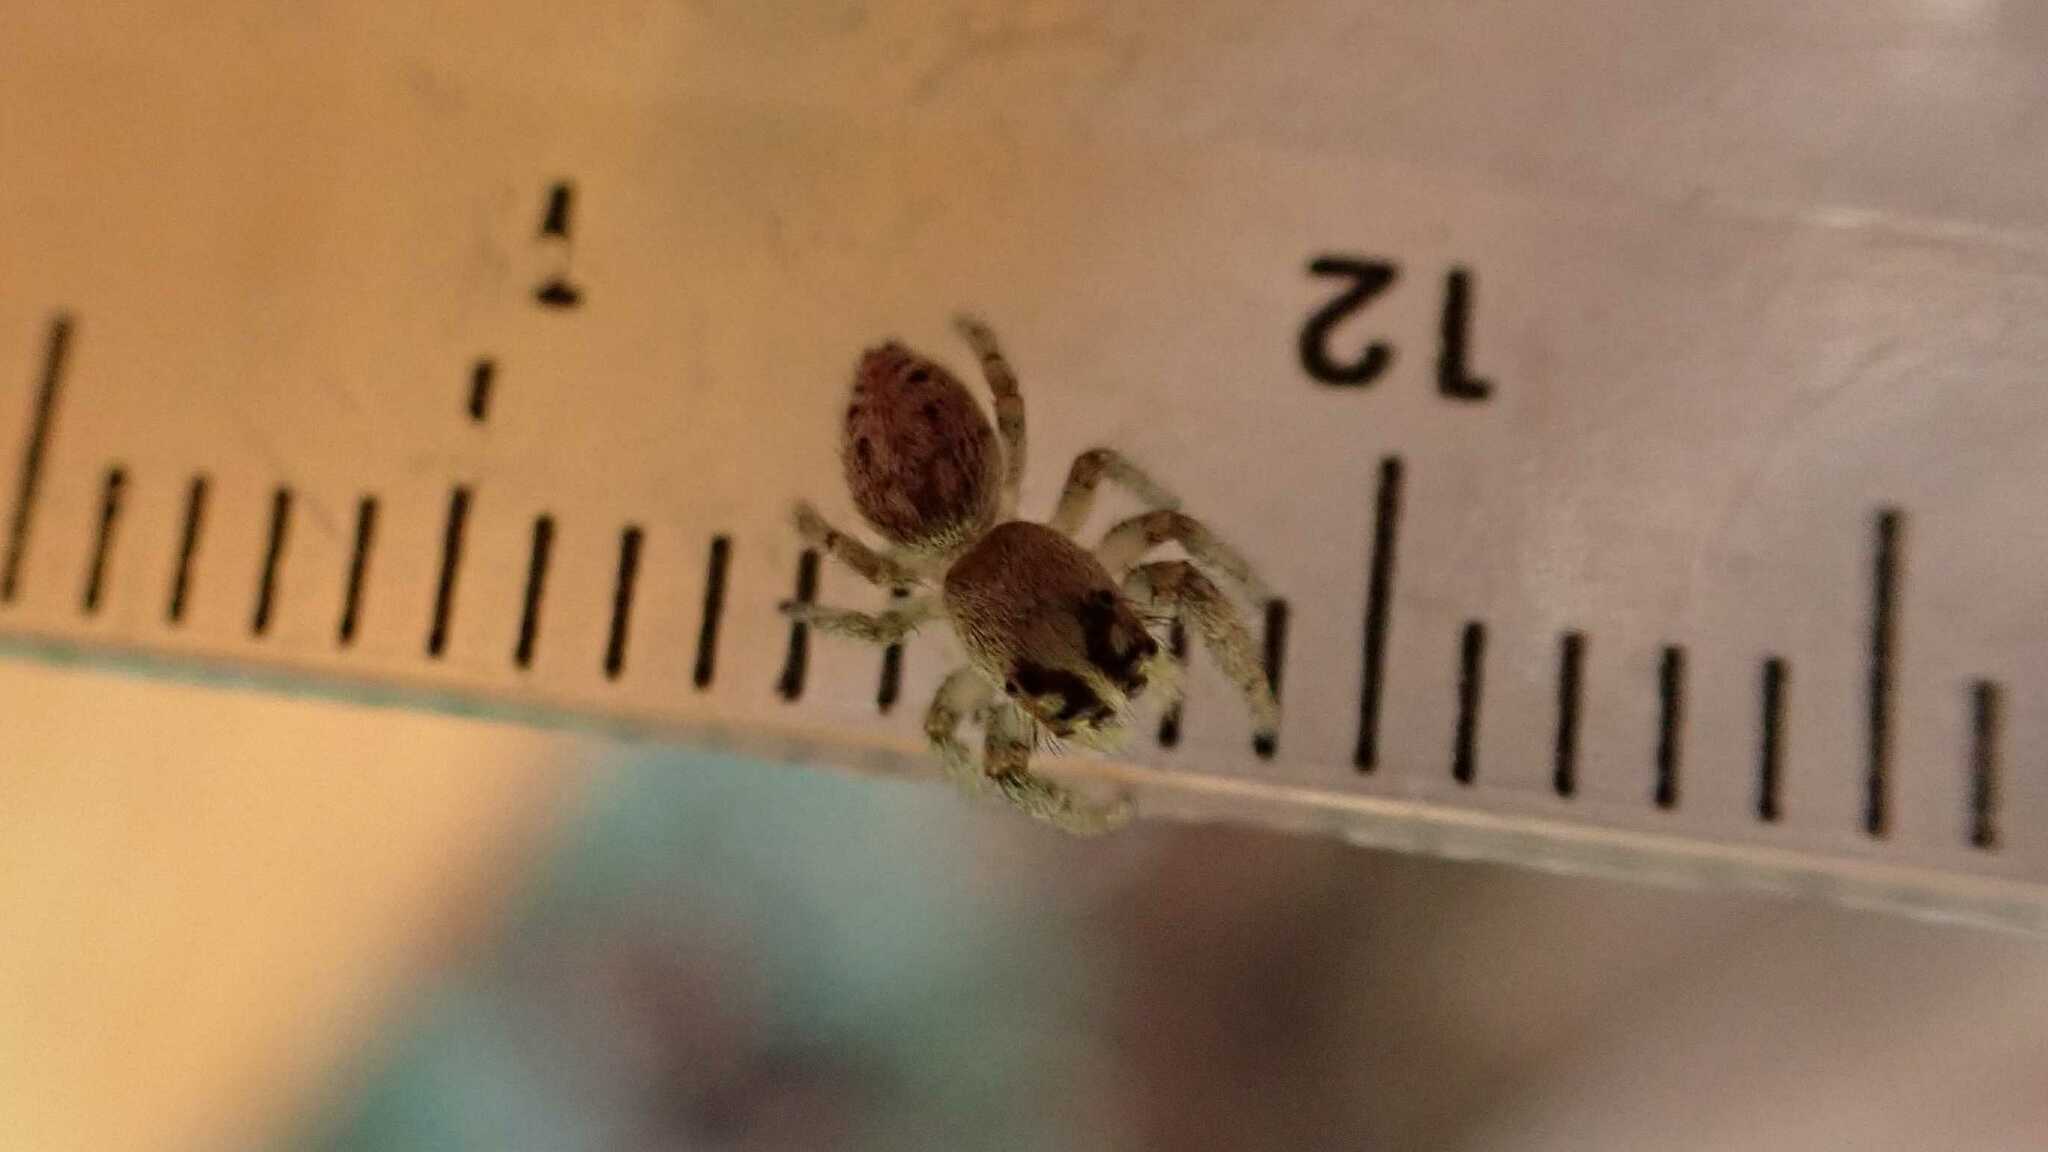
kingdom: Animalia
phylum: Arthropoda
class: Arachnida
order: Araneae
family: Salticidae
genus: Macaroeris
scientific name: Macaroeris nidicolens
